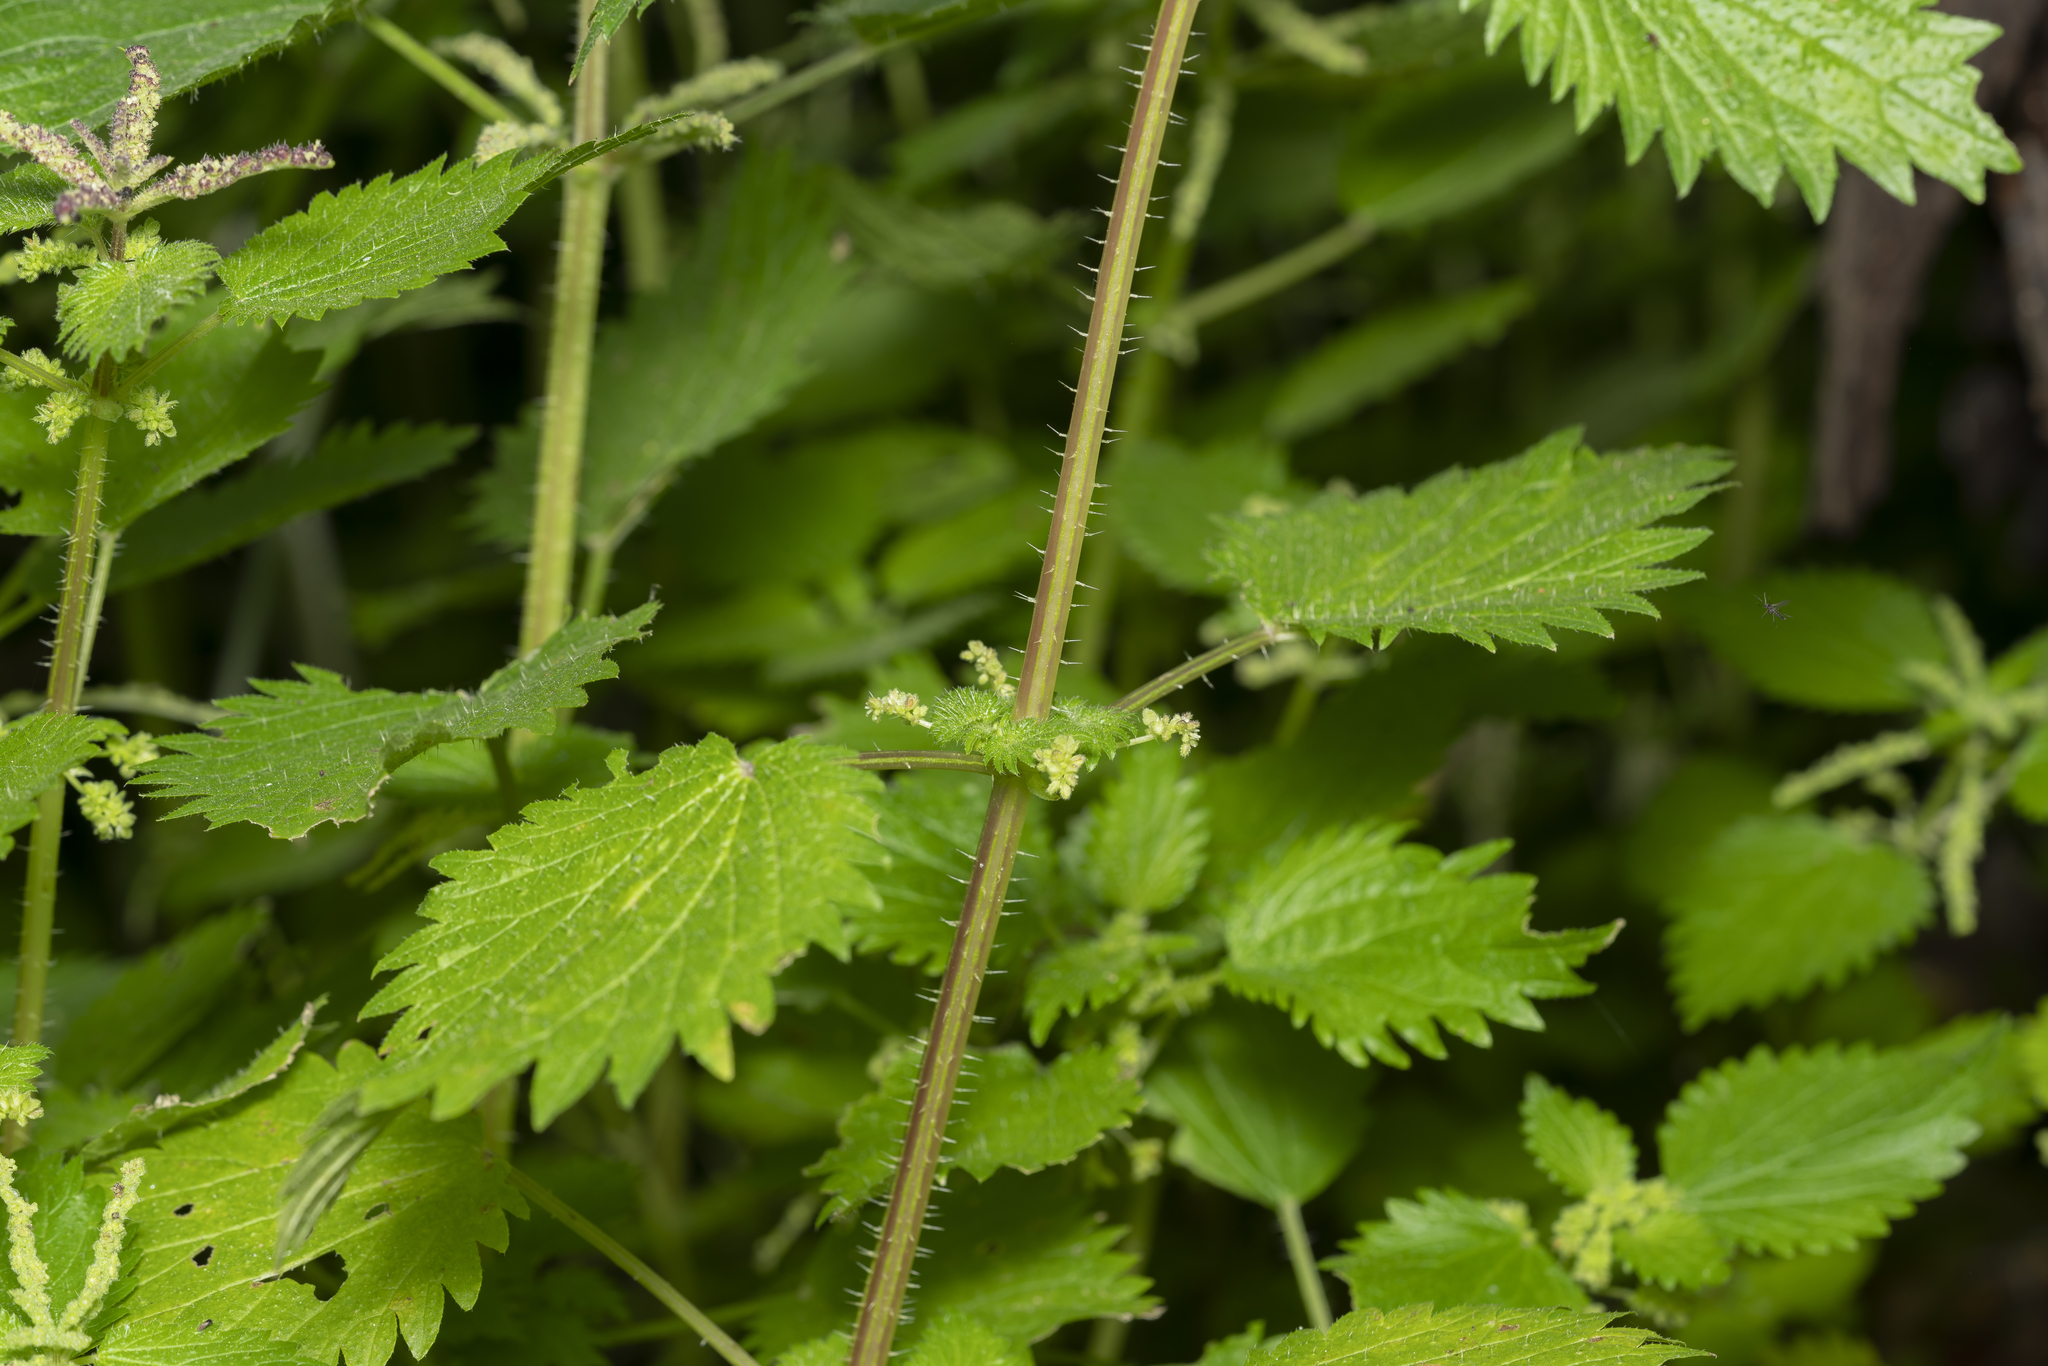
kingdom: Plantae
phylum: Tracheophyta
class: Magnoliopsida
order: Rosales
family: Urticaceae
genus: Urtica
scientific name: Urtica membranacea
